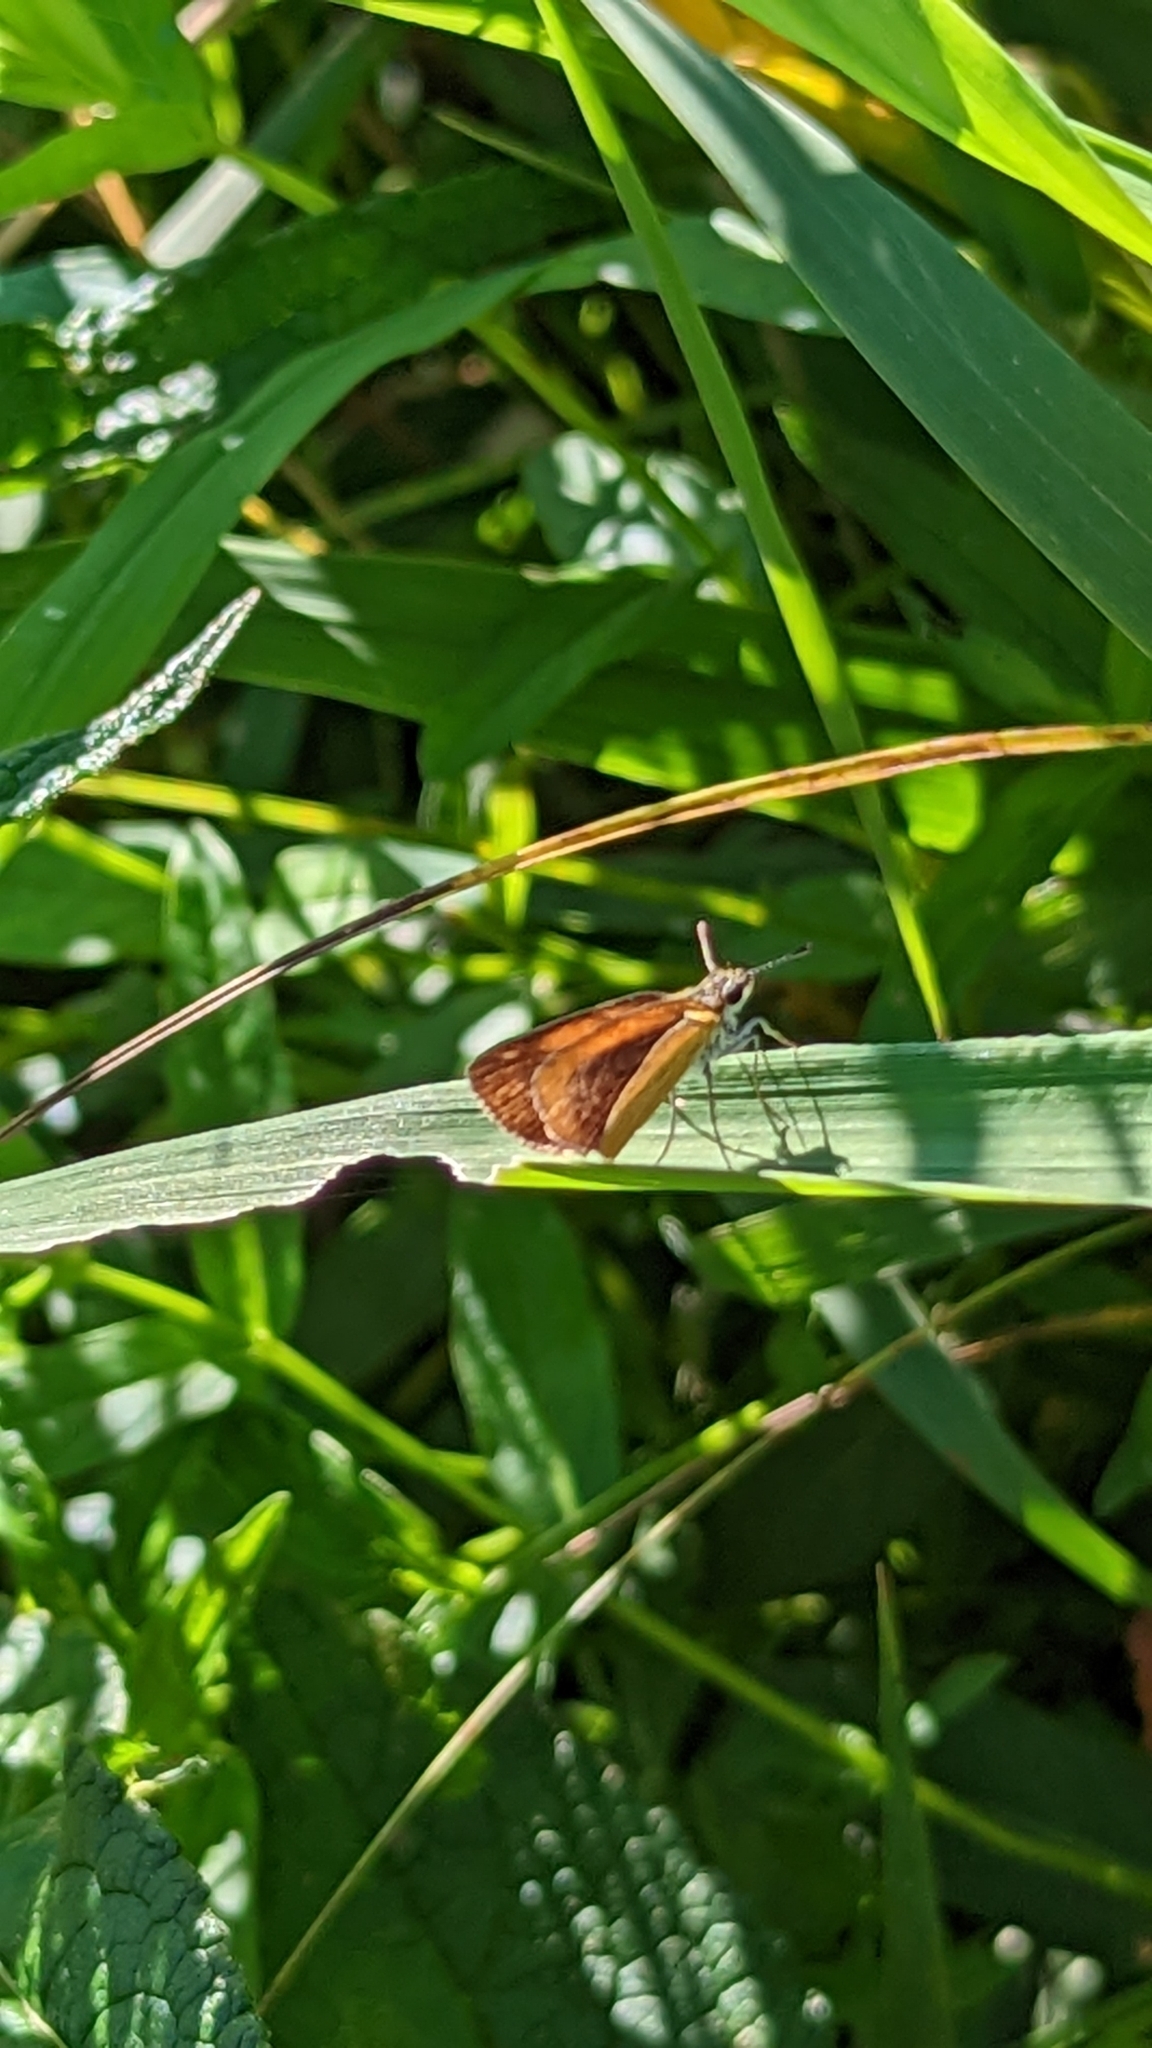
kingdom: Animalia
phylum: Arthropoda
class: Insecta
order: Lepidoptera
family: Hesperiidae
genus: Ancyloxypha
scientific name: Ancyloxypha numitor
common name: Least skipper
